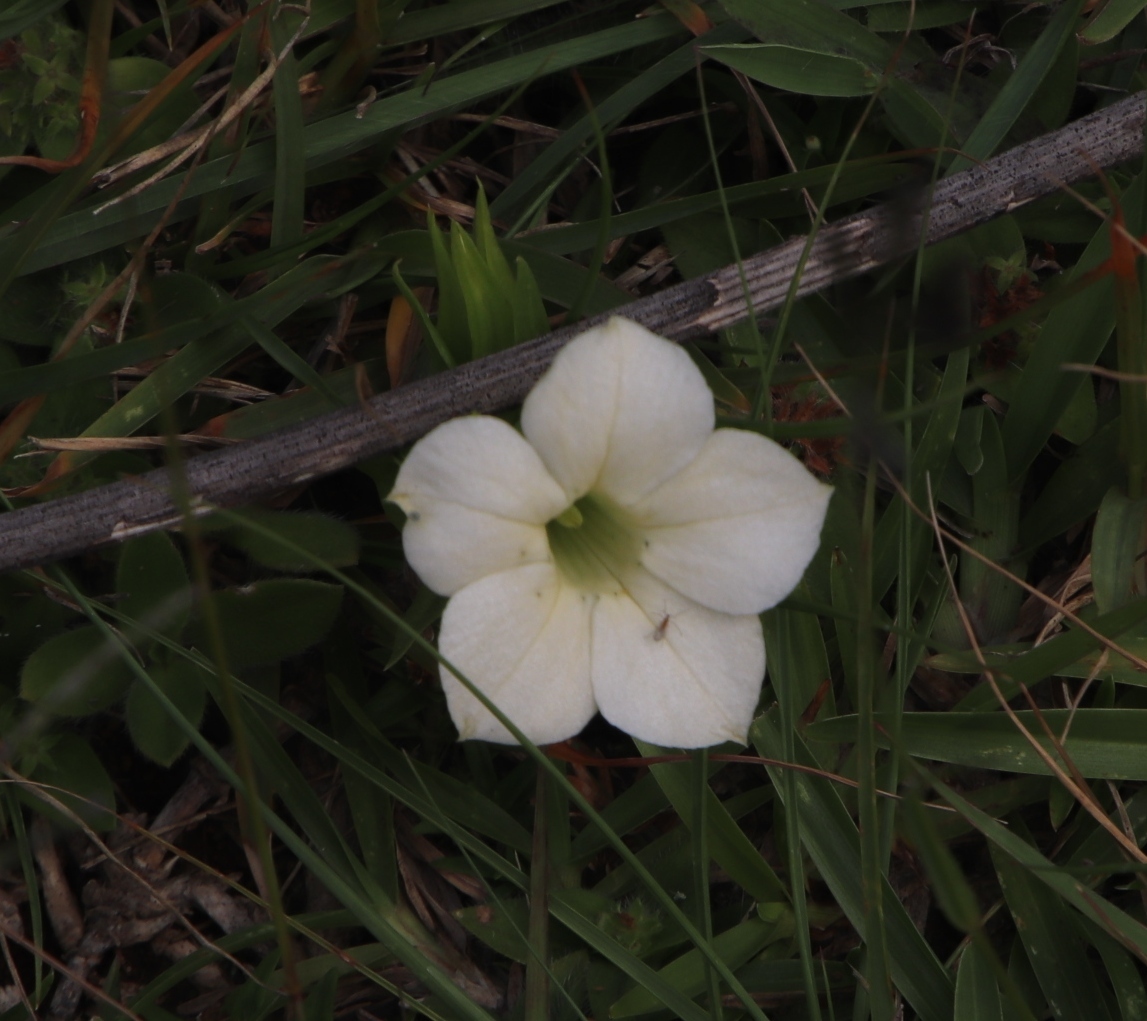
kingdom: Plantae
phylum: Tracheophyta
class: Magnoliopsida
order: Gentianales
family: Gentianaceae
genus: Exochaenium
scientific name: Exochaenium grande
